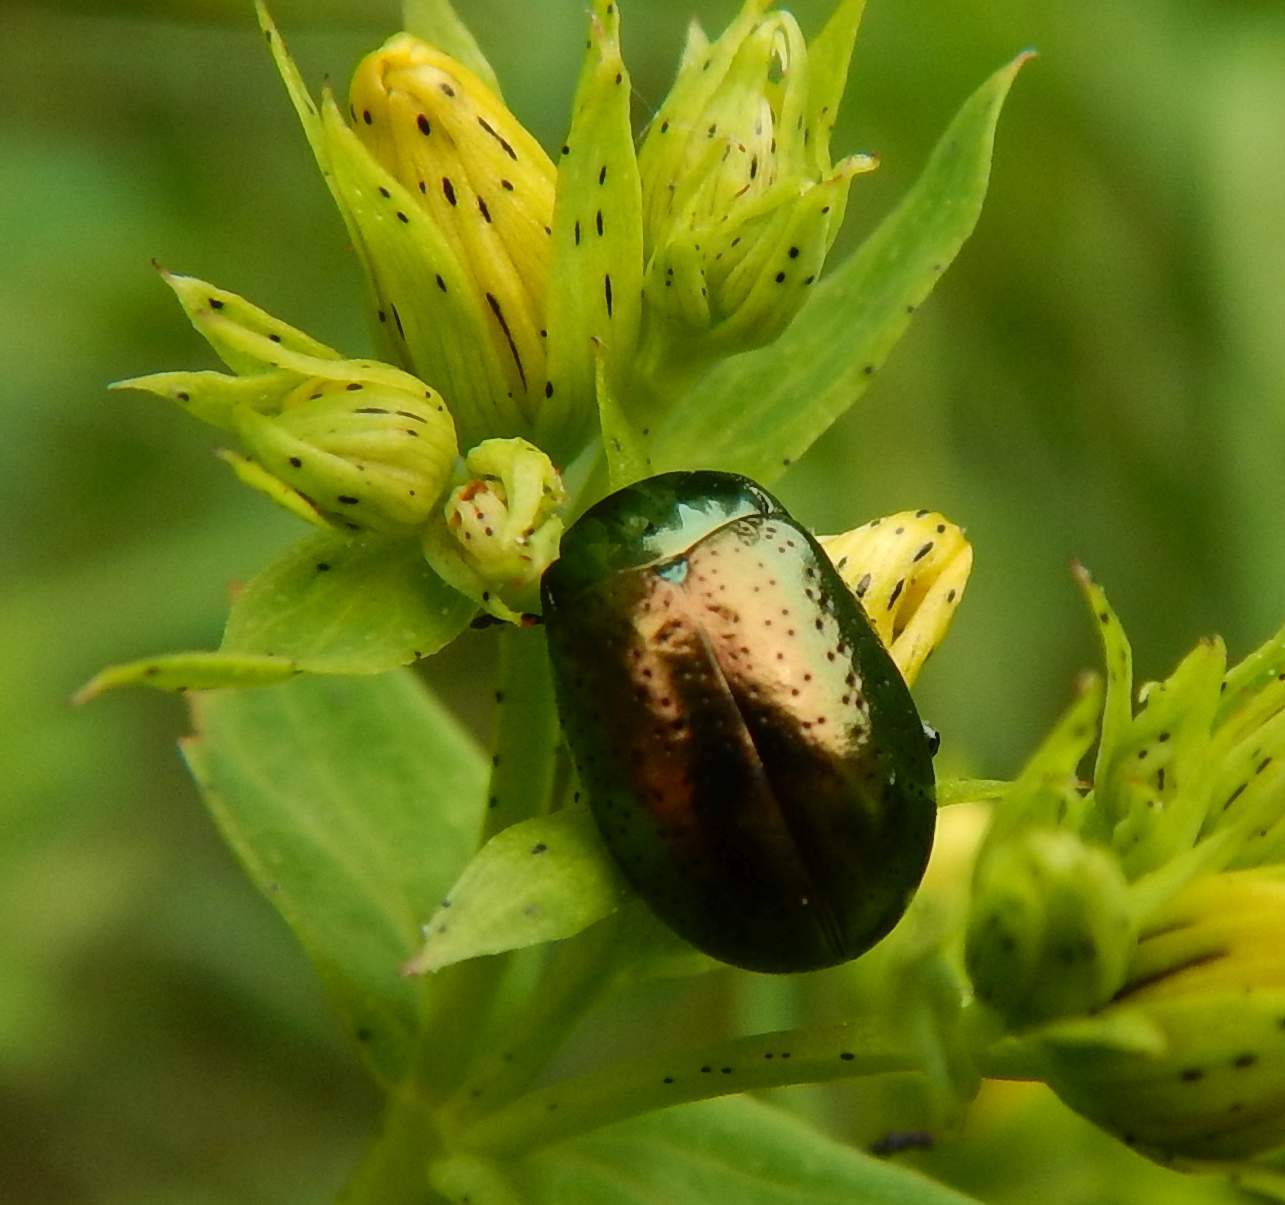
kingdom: Animalia
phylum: Arthropoda
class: Insecta
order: Coleoptera
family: Chrysomelidae
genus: Chrysolina
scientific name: Chrysolina hyperici
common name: St. johnswort beetle
